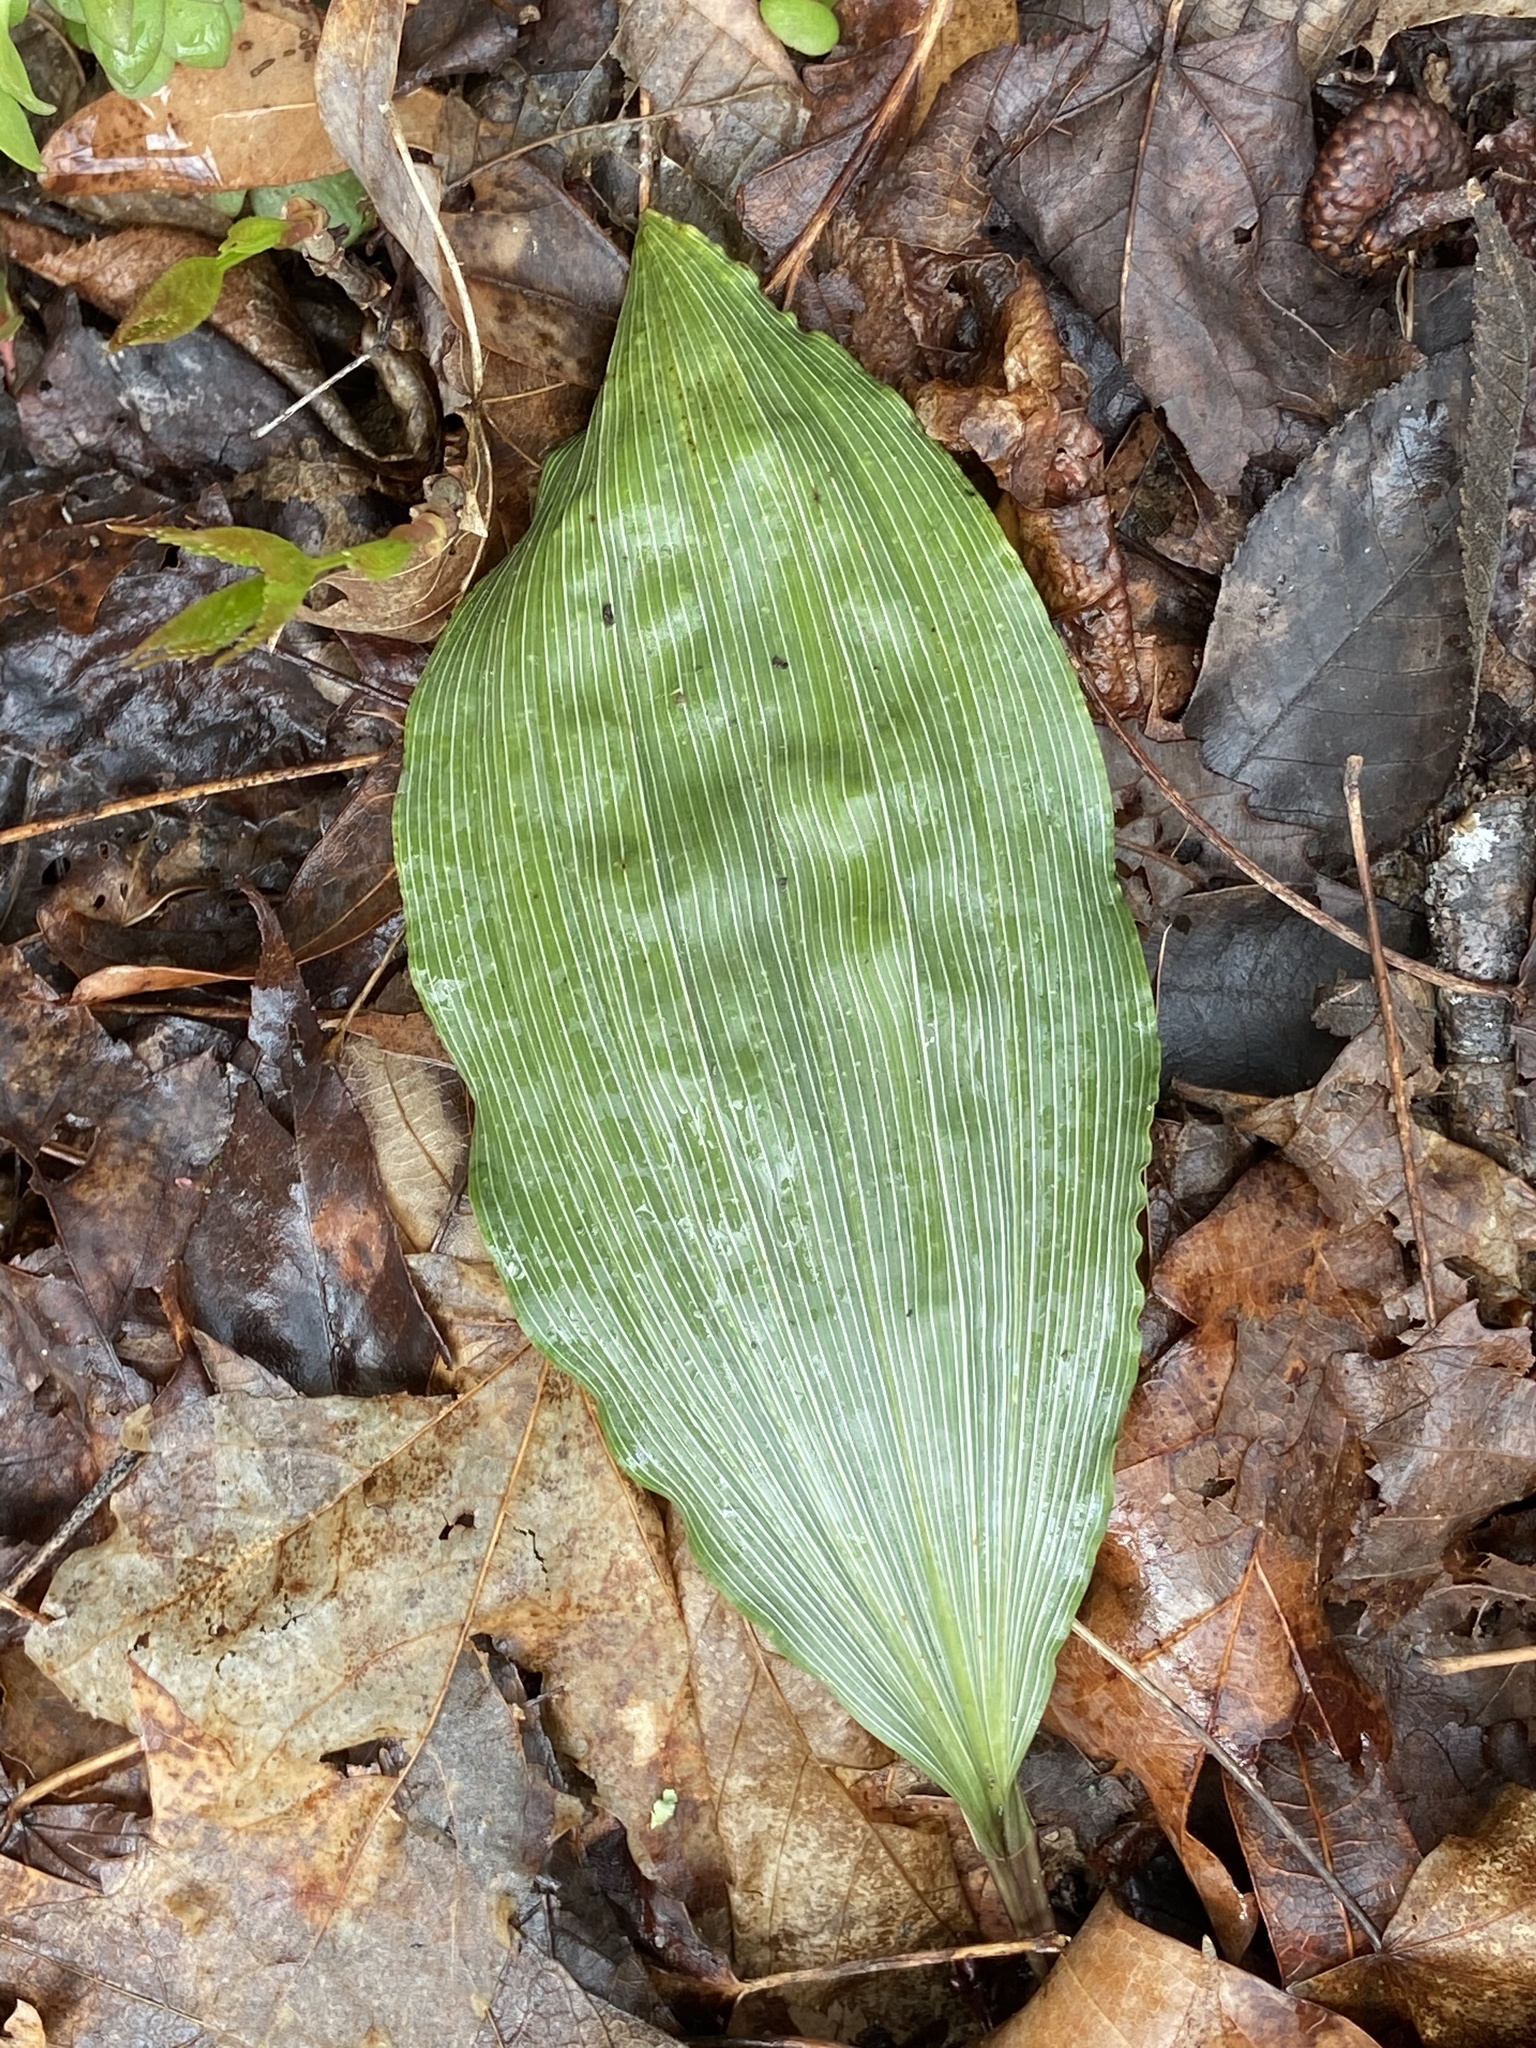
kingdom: Plantae
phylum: Tracheophyta
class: Liliopsida
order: Asparagales
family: Orchidaceae
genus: Aplectrum
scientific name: Aplectrum hyemale
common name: Adam-and-eve
